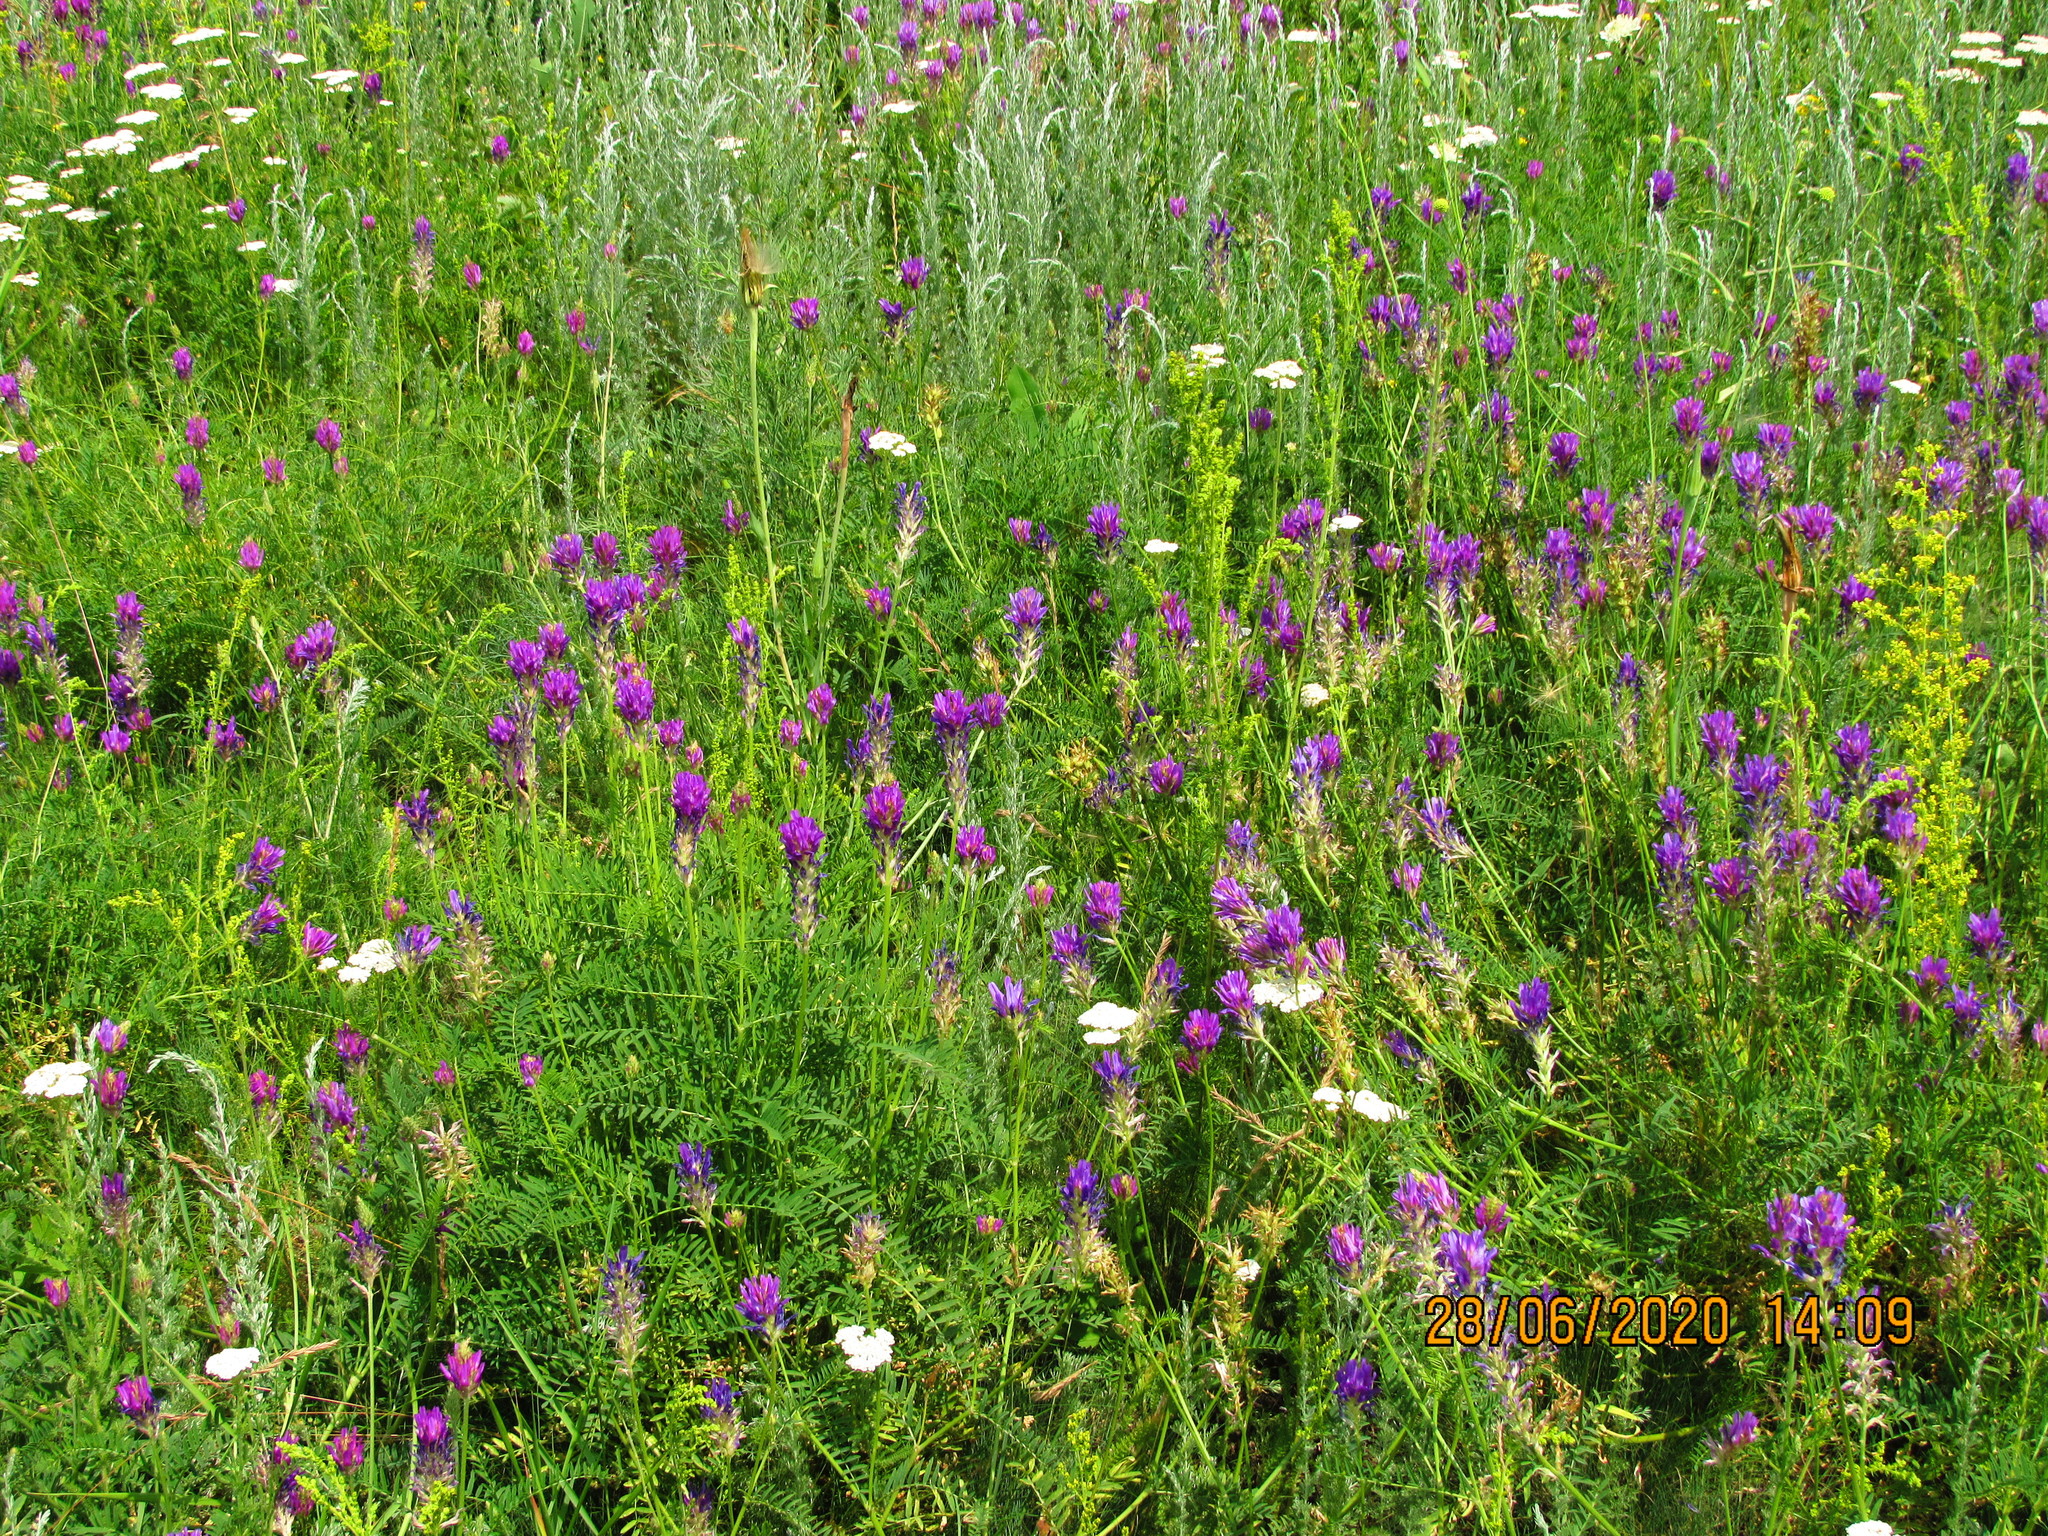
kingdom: Plantae
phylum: Tracheophyta
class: Magnoliopsida
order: Fabales
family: Fabaceae
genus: Astragalus
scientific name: Astragalus onobrychis
